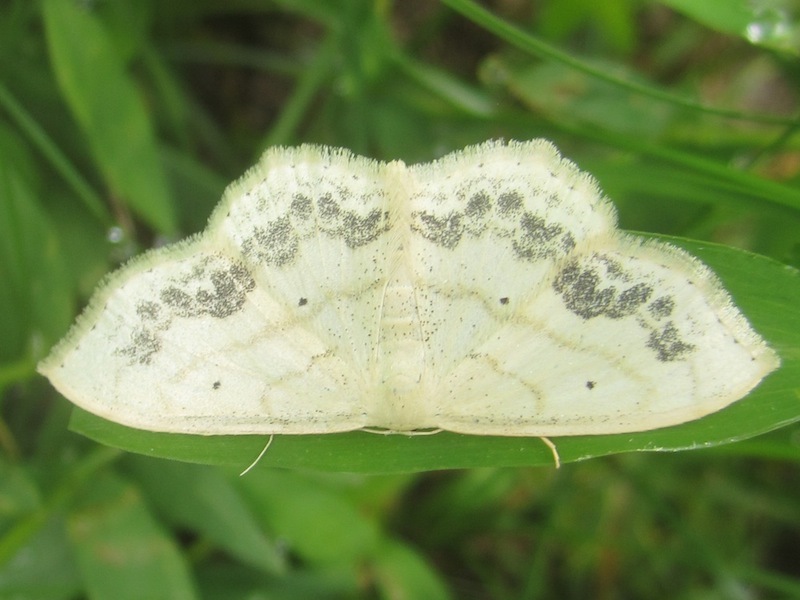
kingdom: Animalia
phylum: Arthropoda
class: Insecta
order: Lepidoptera
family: Geometridae
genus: Scopula
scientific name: Scopula limboundata
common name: Large lace border
